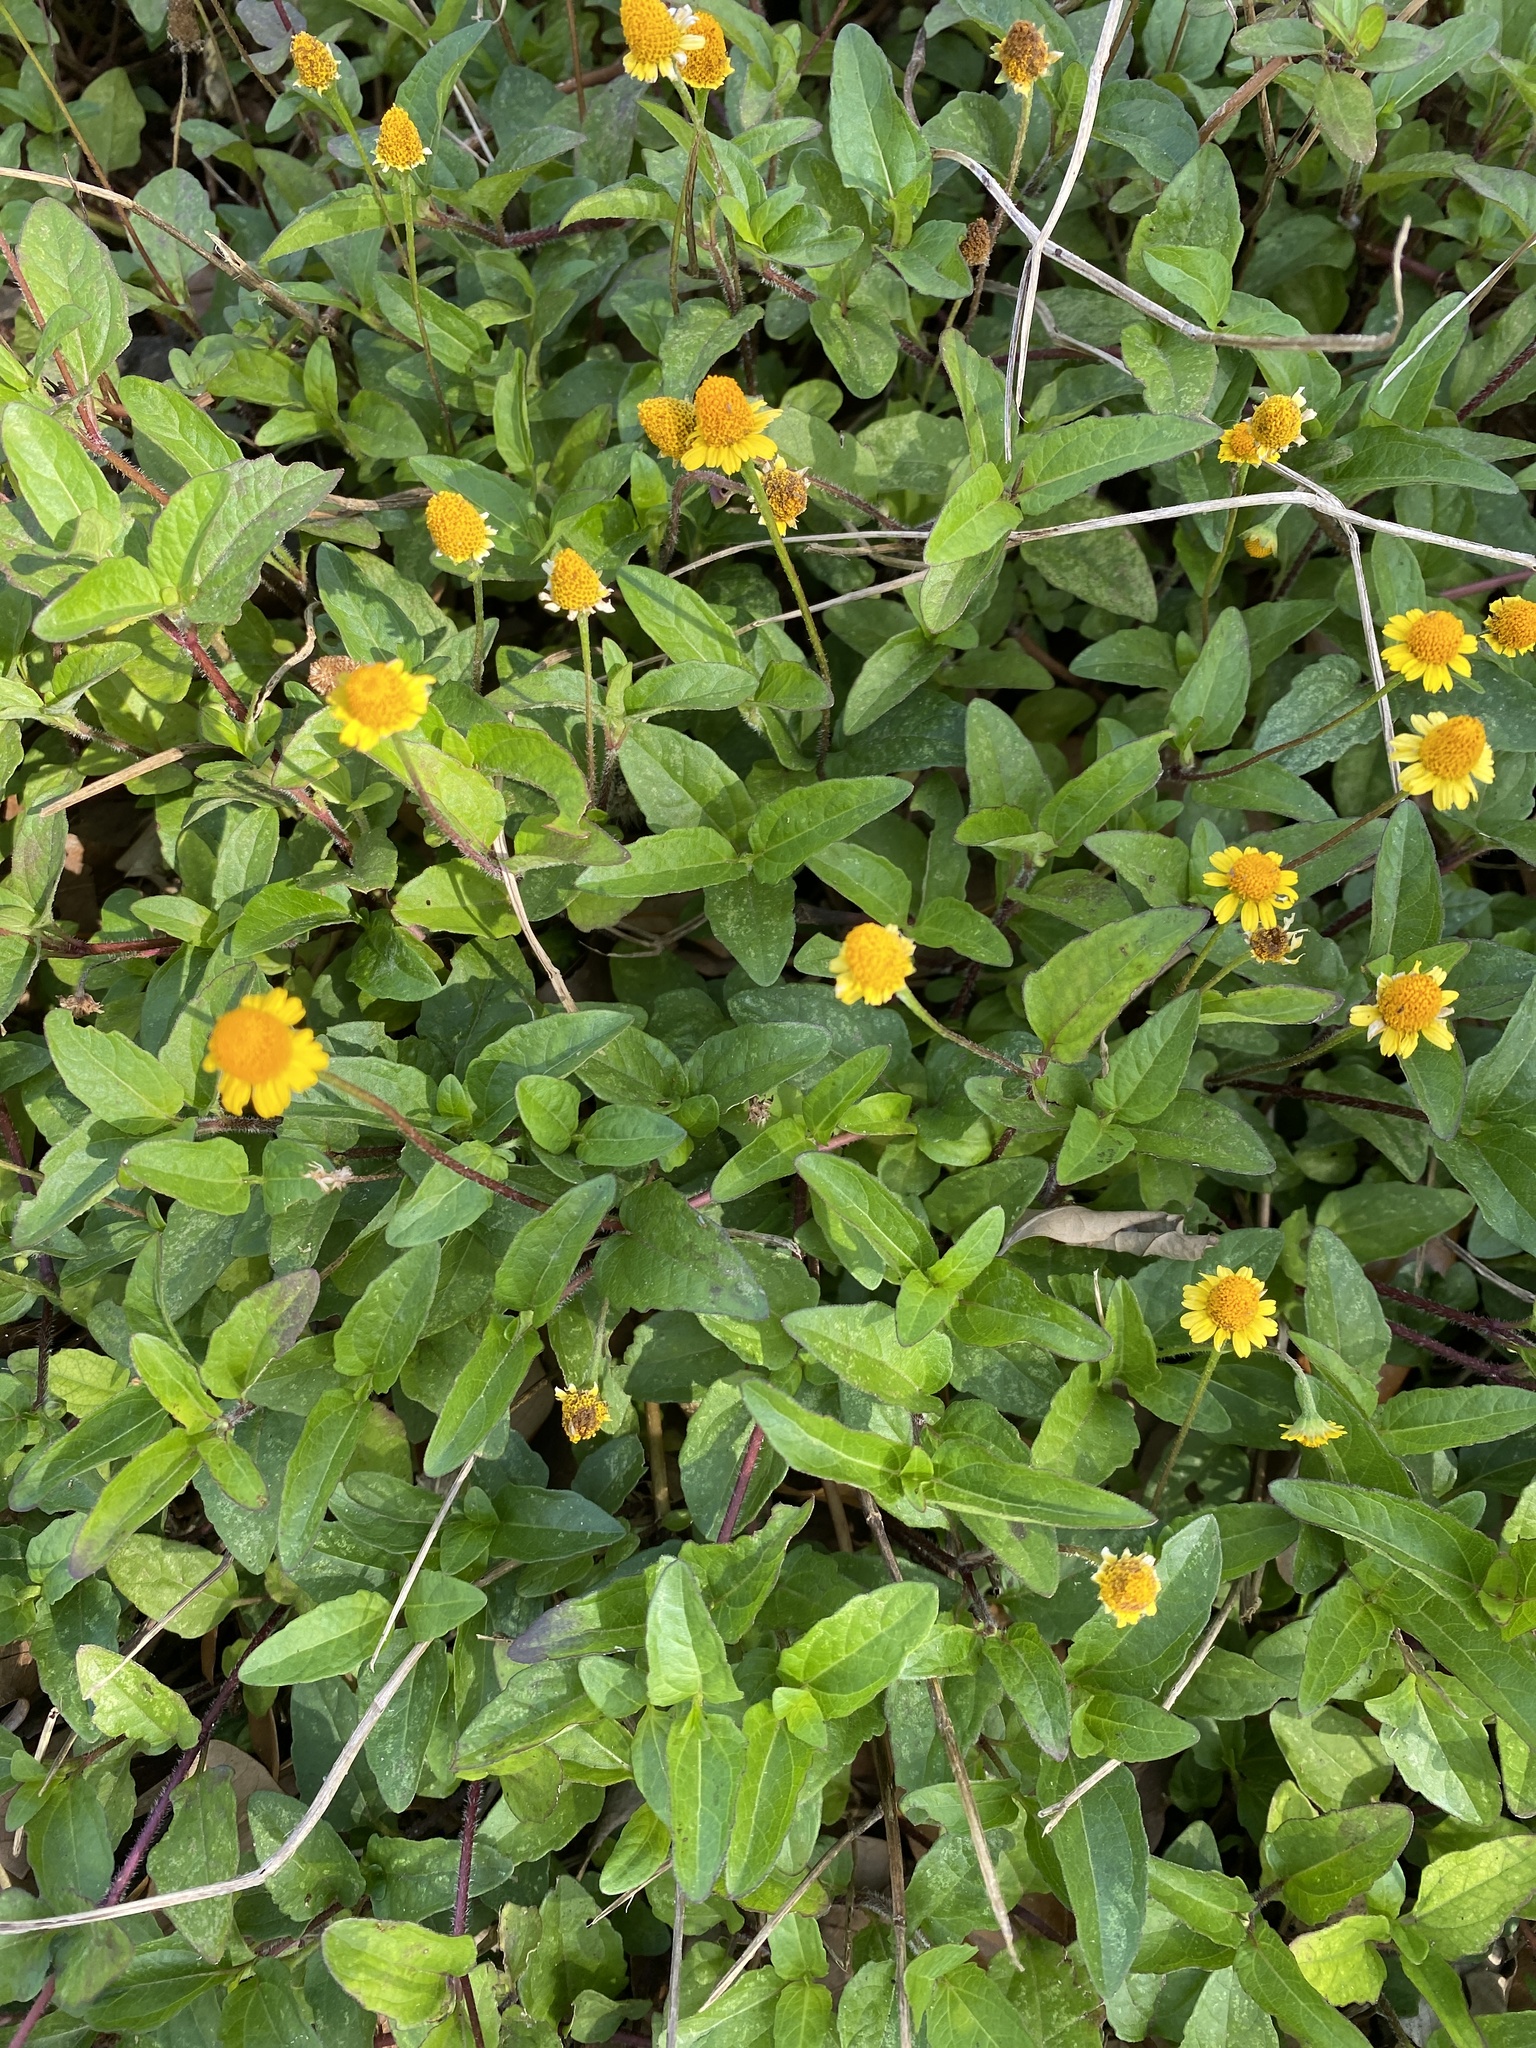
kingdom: Plantae
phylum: Tracheophyta
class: Magnoliopsida
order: Asterales
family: Asteraceae
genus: Acmella
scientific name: Acmella repens
